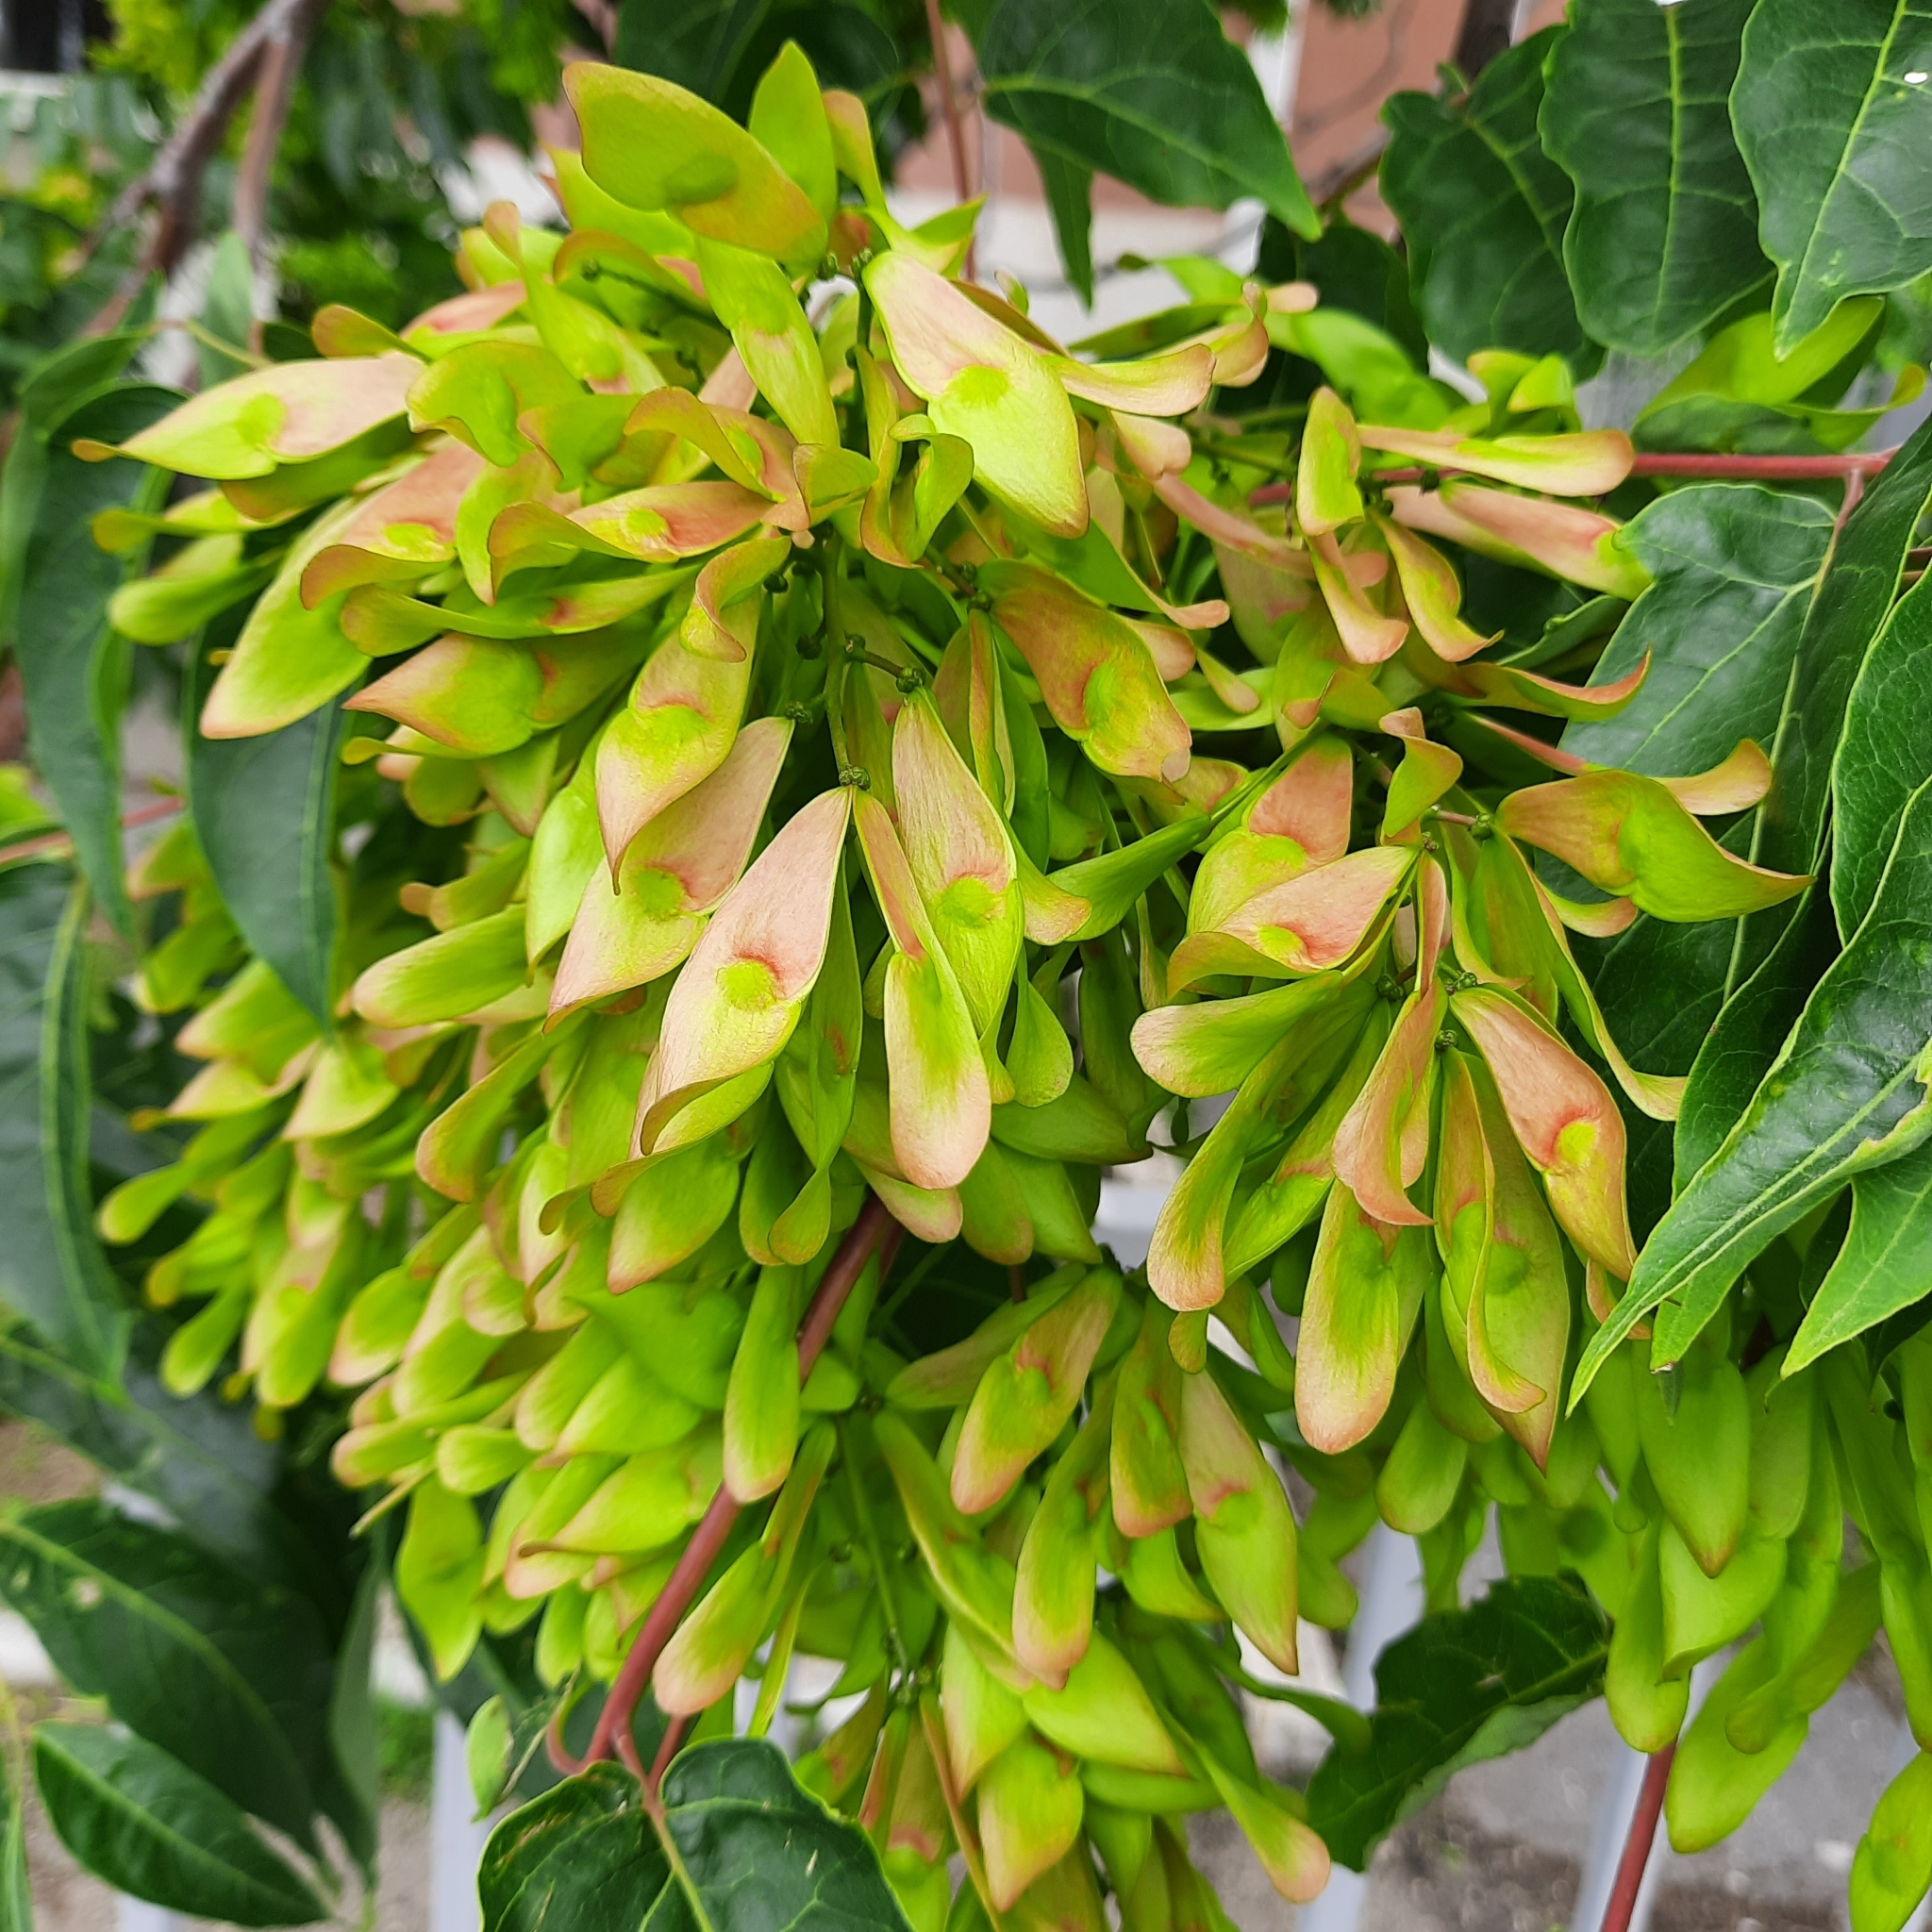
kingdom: Plantae
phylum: Tracheophyta
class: Magnoliopsida
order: Sapindales
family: Simaroubaceae
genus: Ailanthus
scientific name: Ailanthus altissima
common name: Tree-of-heaven
